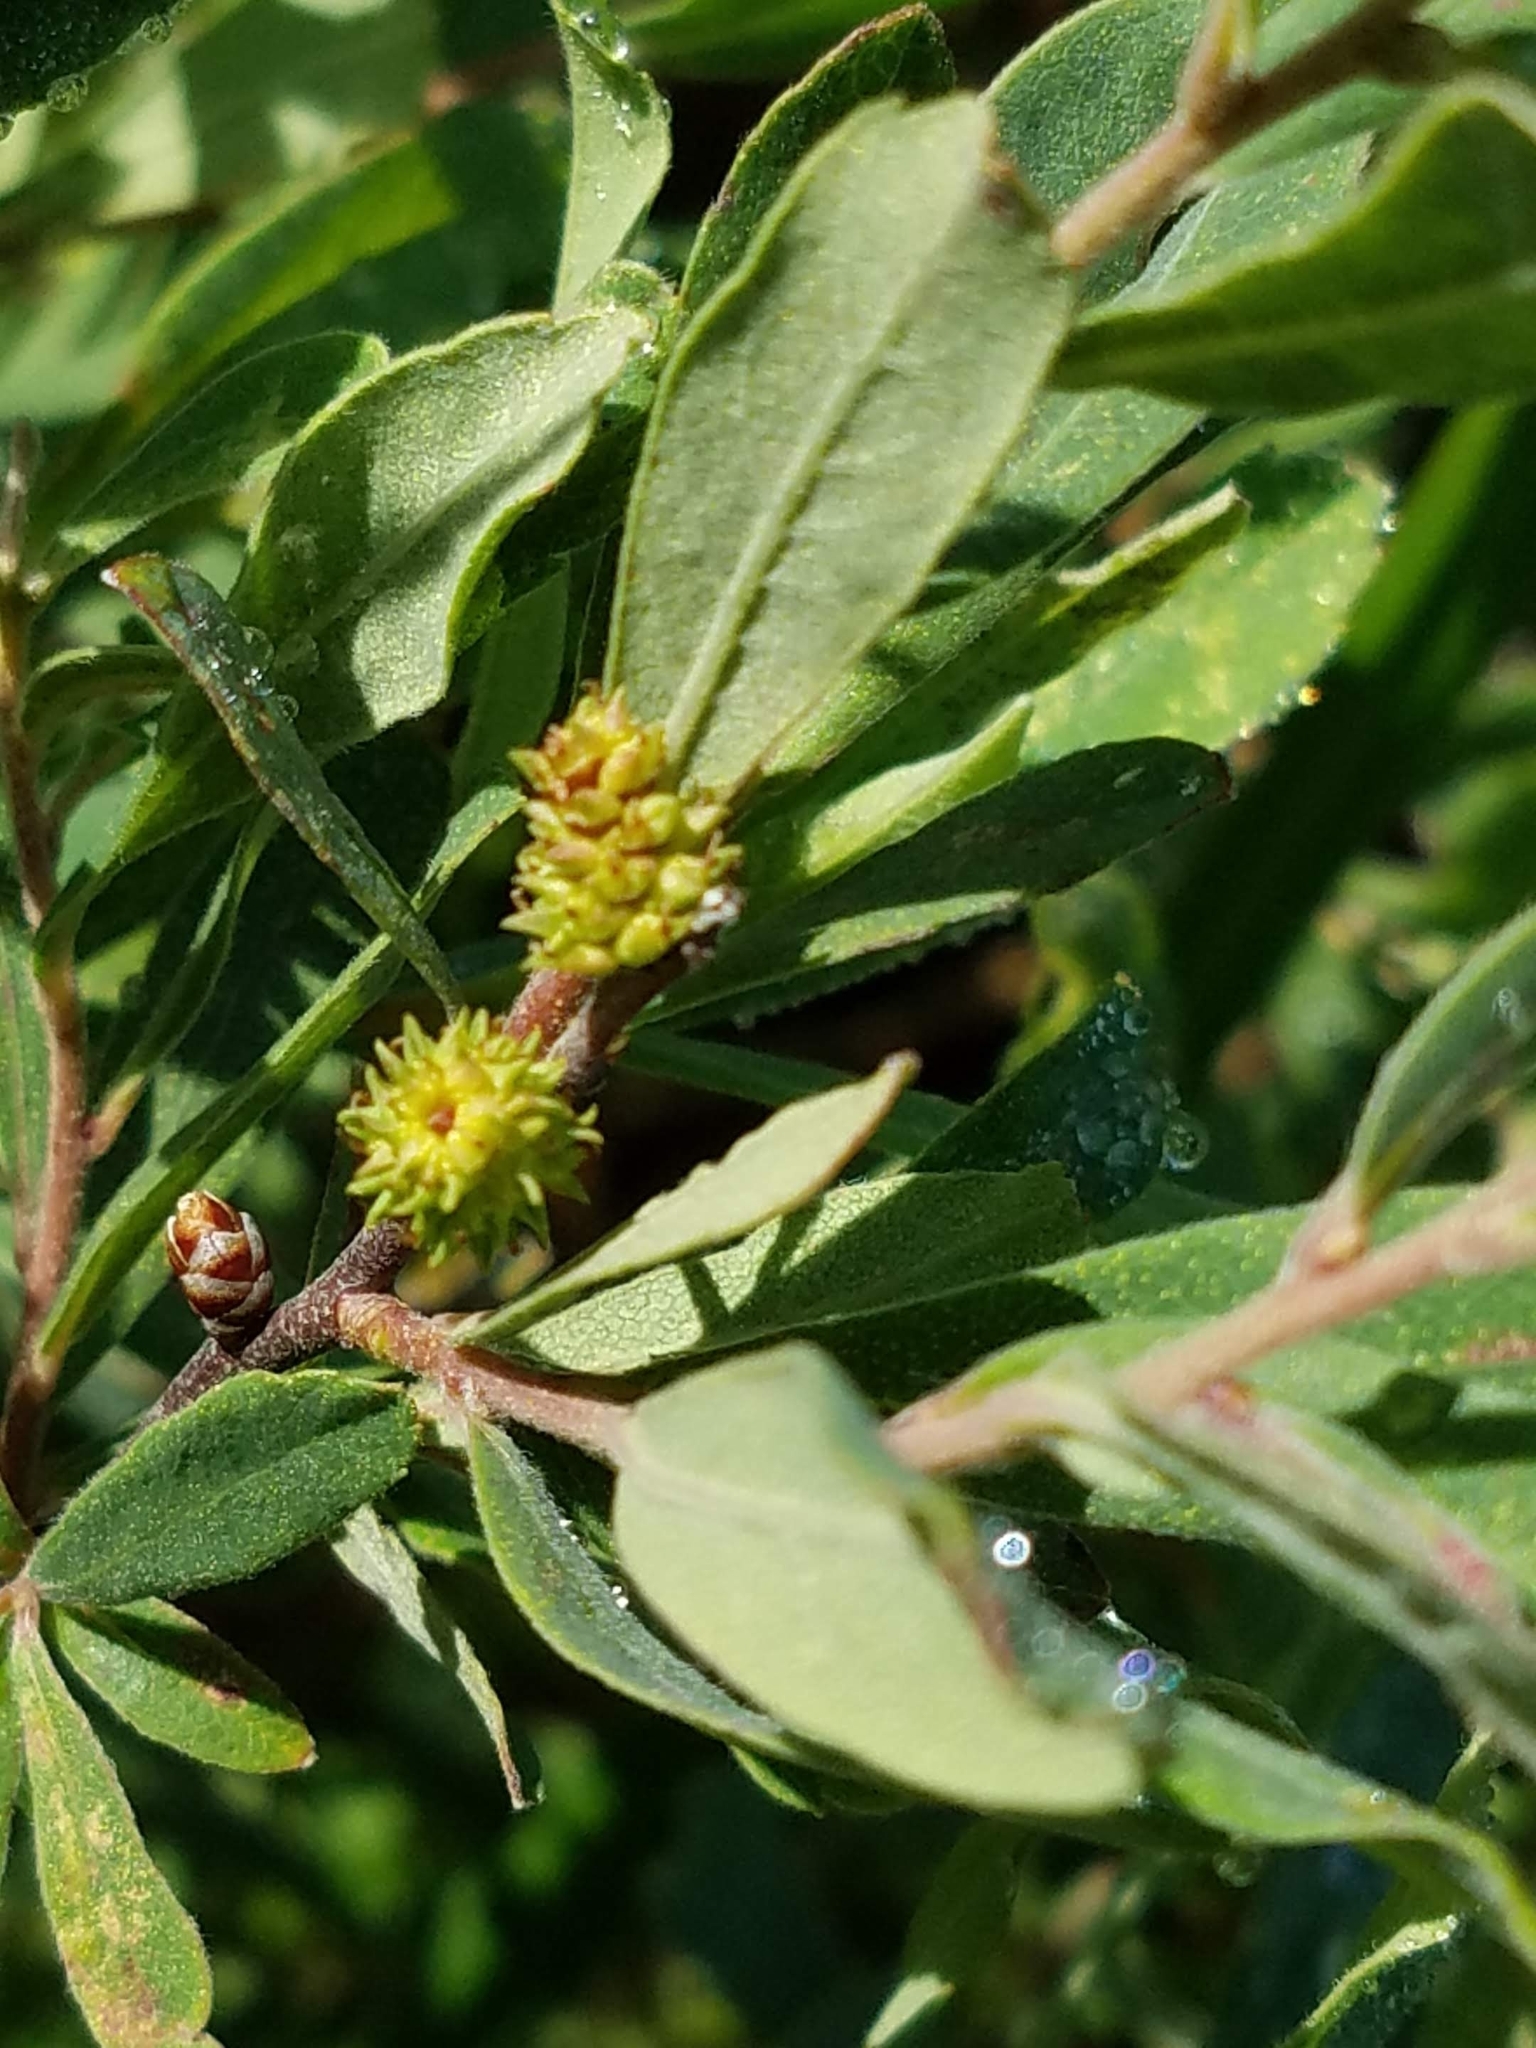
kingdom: Plantae
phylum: Tracheophyta
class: Magnoliopsida
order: Fagales
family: Myricaceae
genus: Myrica
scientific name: Myrica gale
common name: Sweet gale
